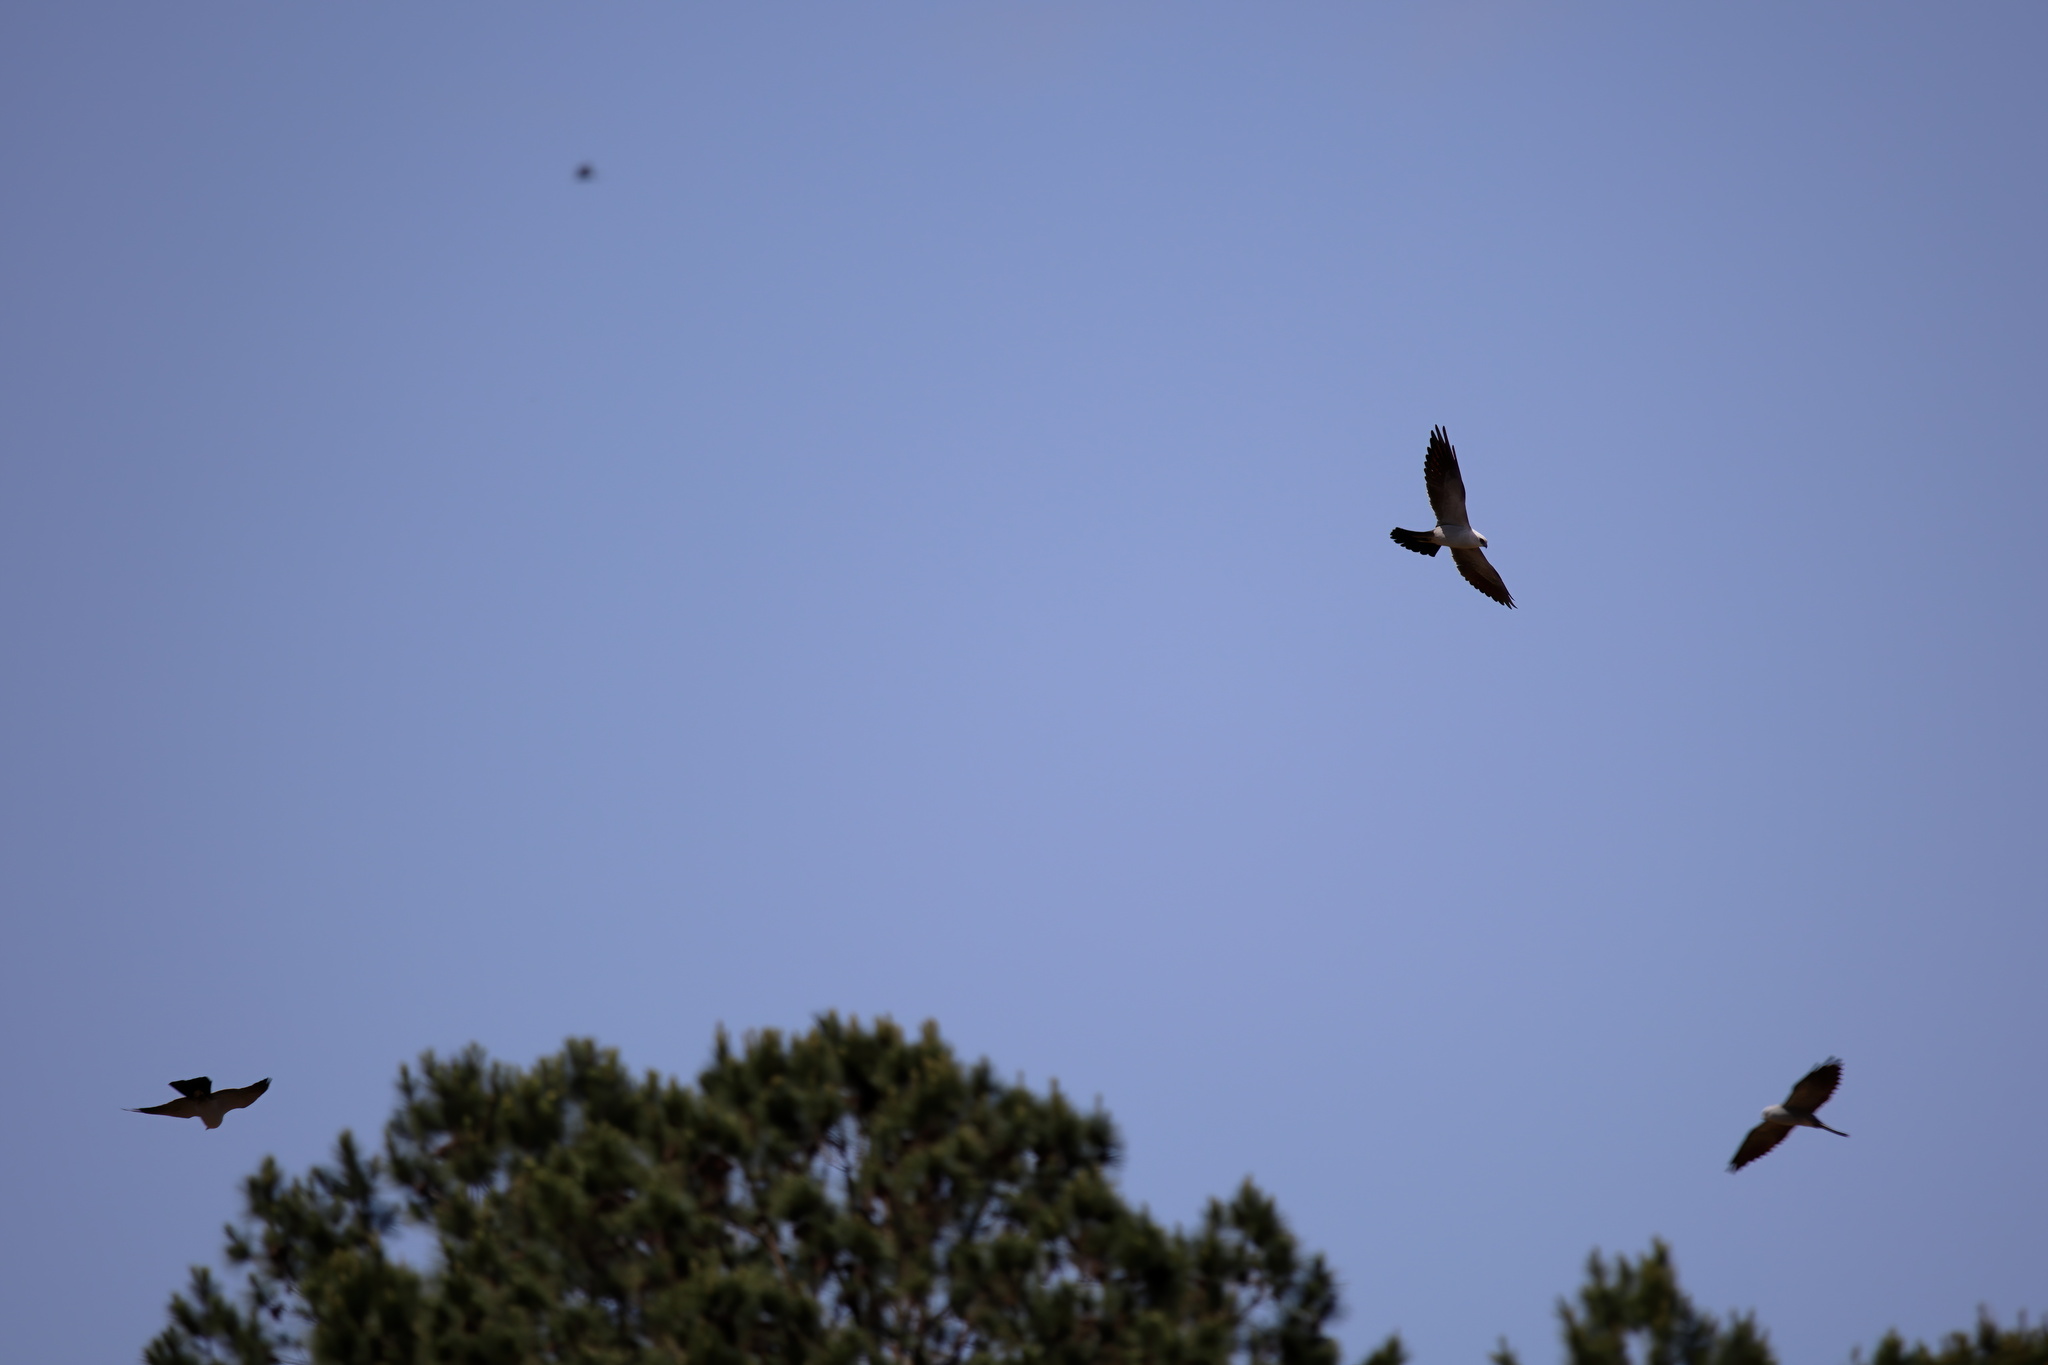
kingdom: Animalia
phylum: Chordata
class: Aves
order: Accipitriformes
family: Accipitridae
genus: Ictinia
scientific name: Ictinia mississippiensis
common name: Mississippi kite
